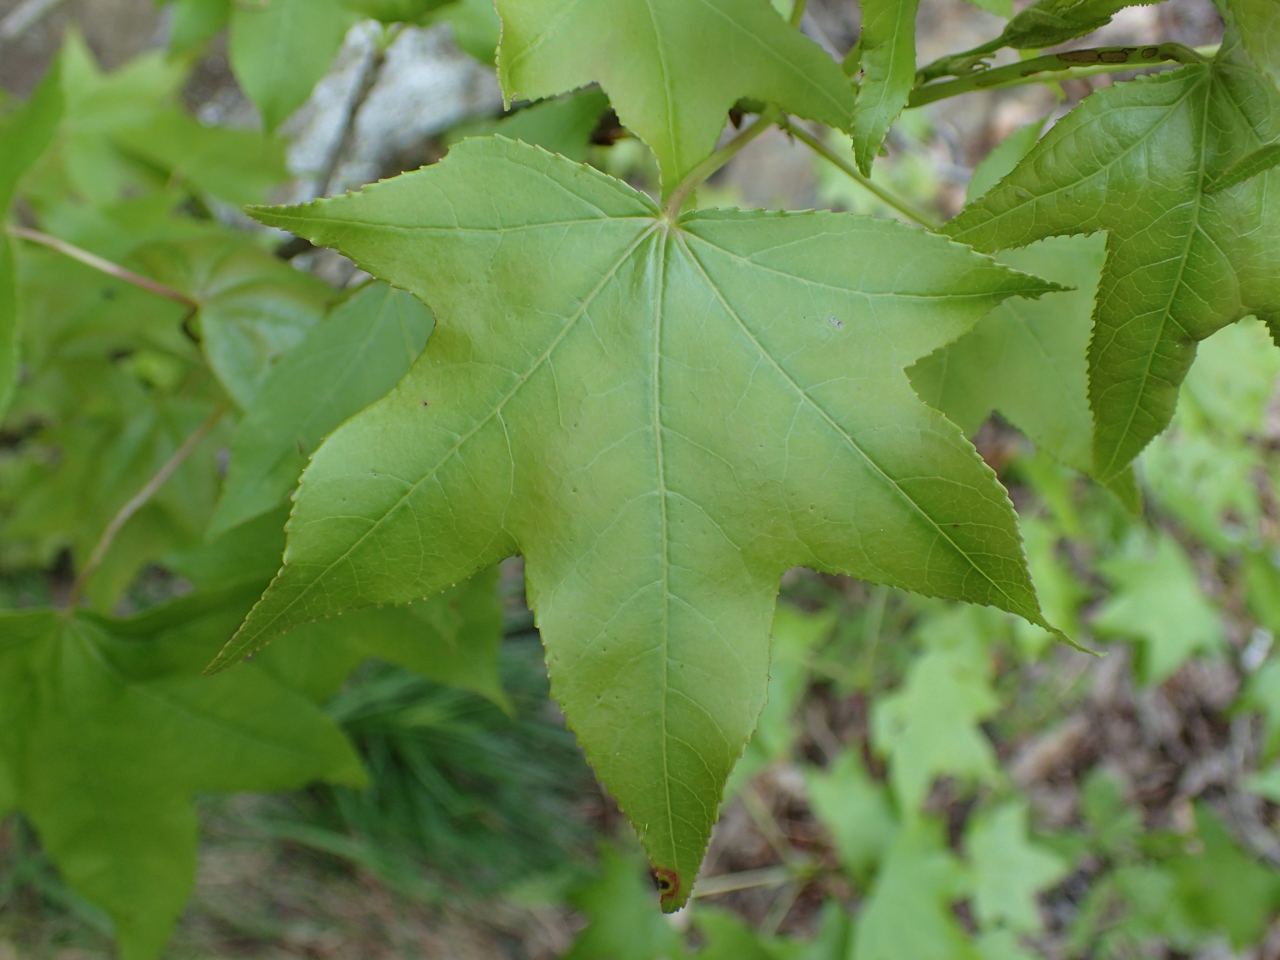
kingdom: Plantae
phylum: Tracheophyta
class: Magnoliopsida
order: Saxifragales
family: Altingiaceae
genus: Liquidambar
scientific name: Liquidambar styraciflua
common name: Sweet gum
